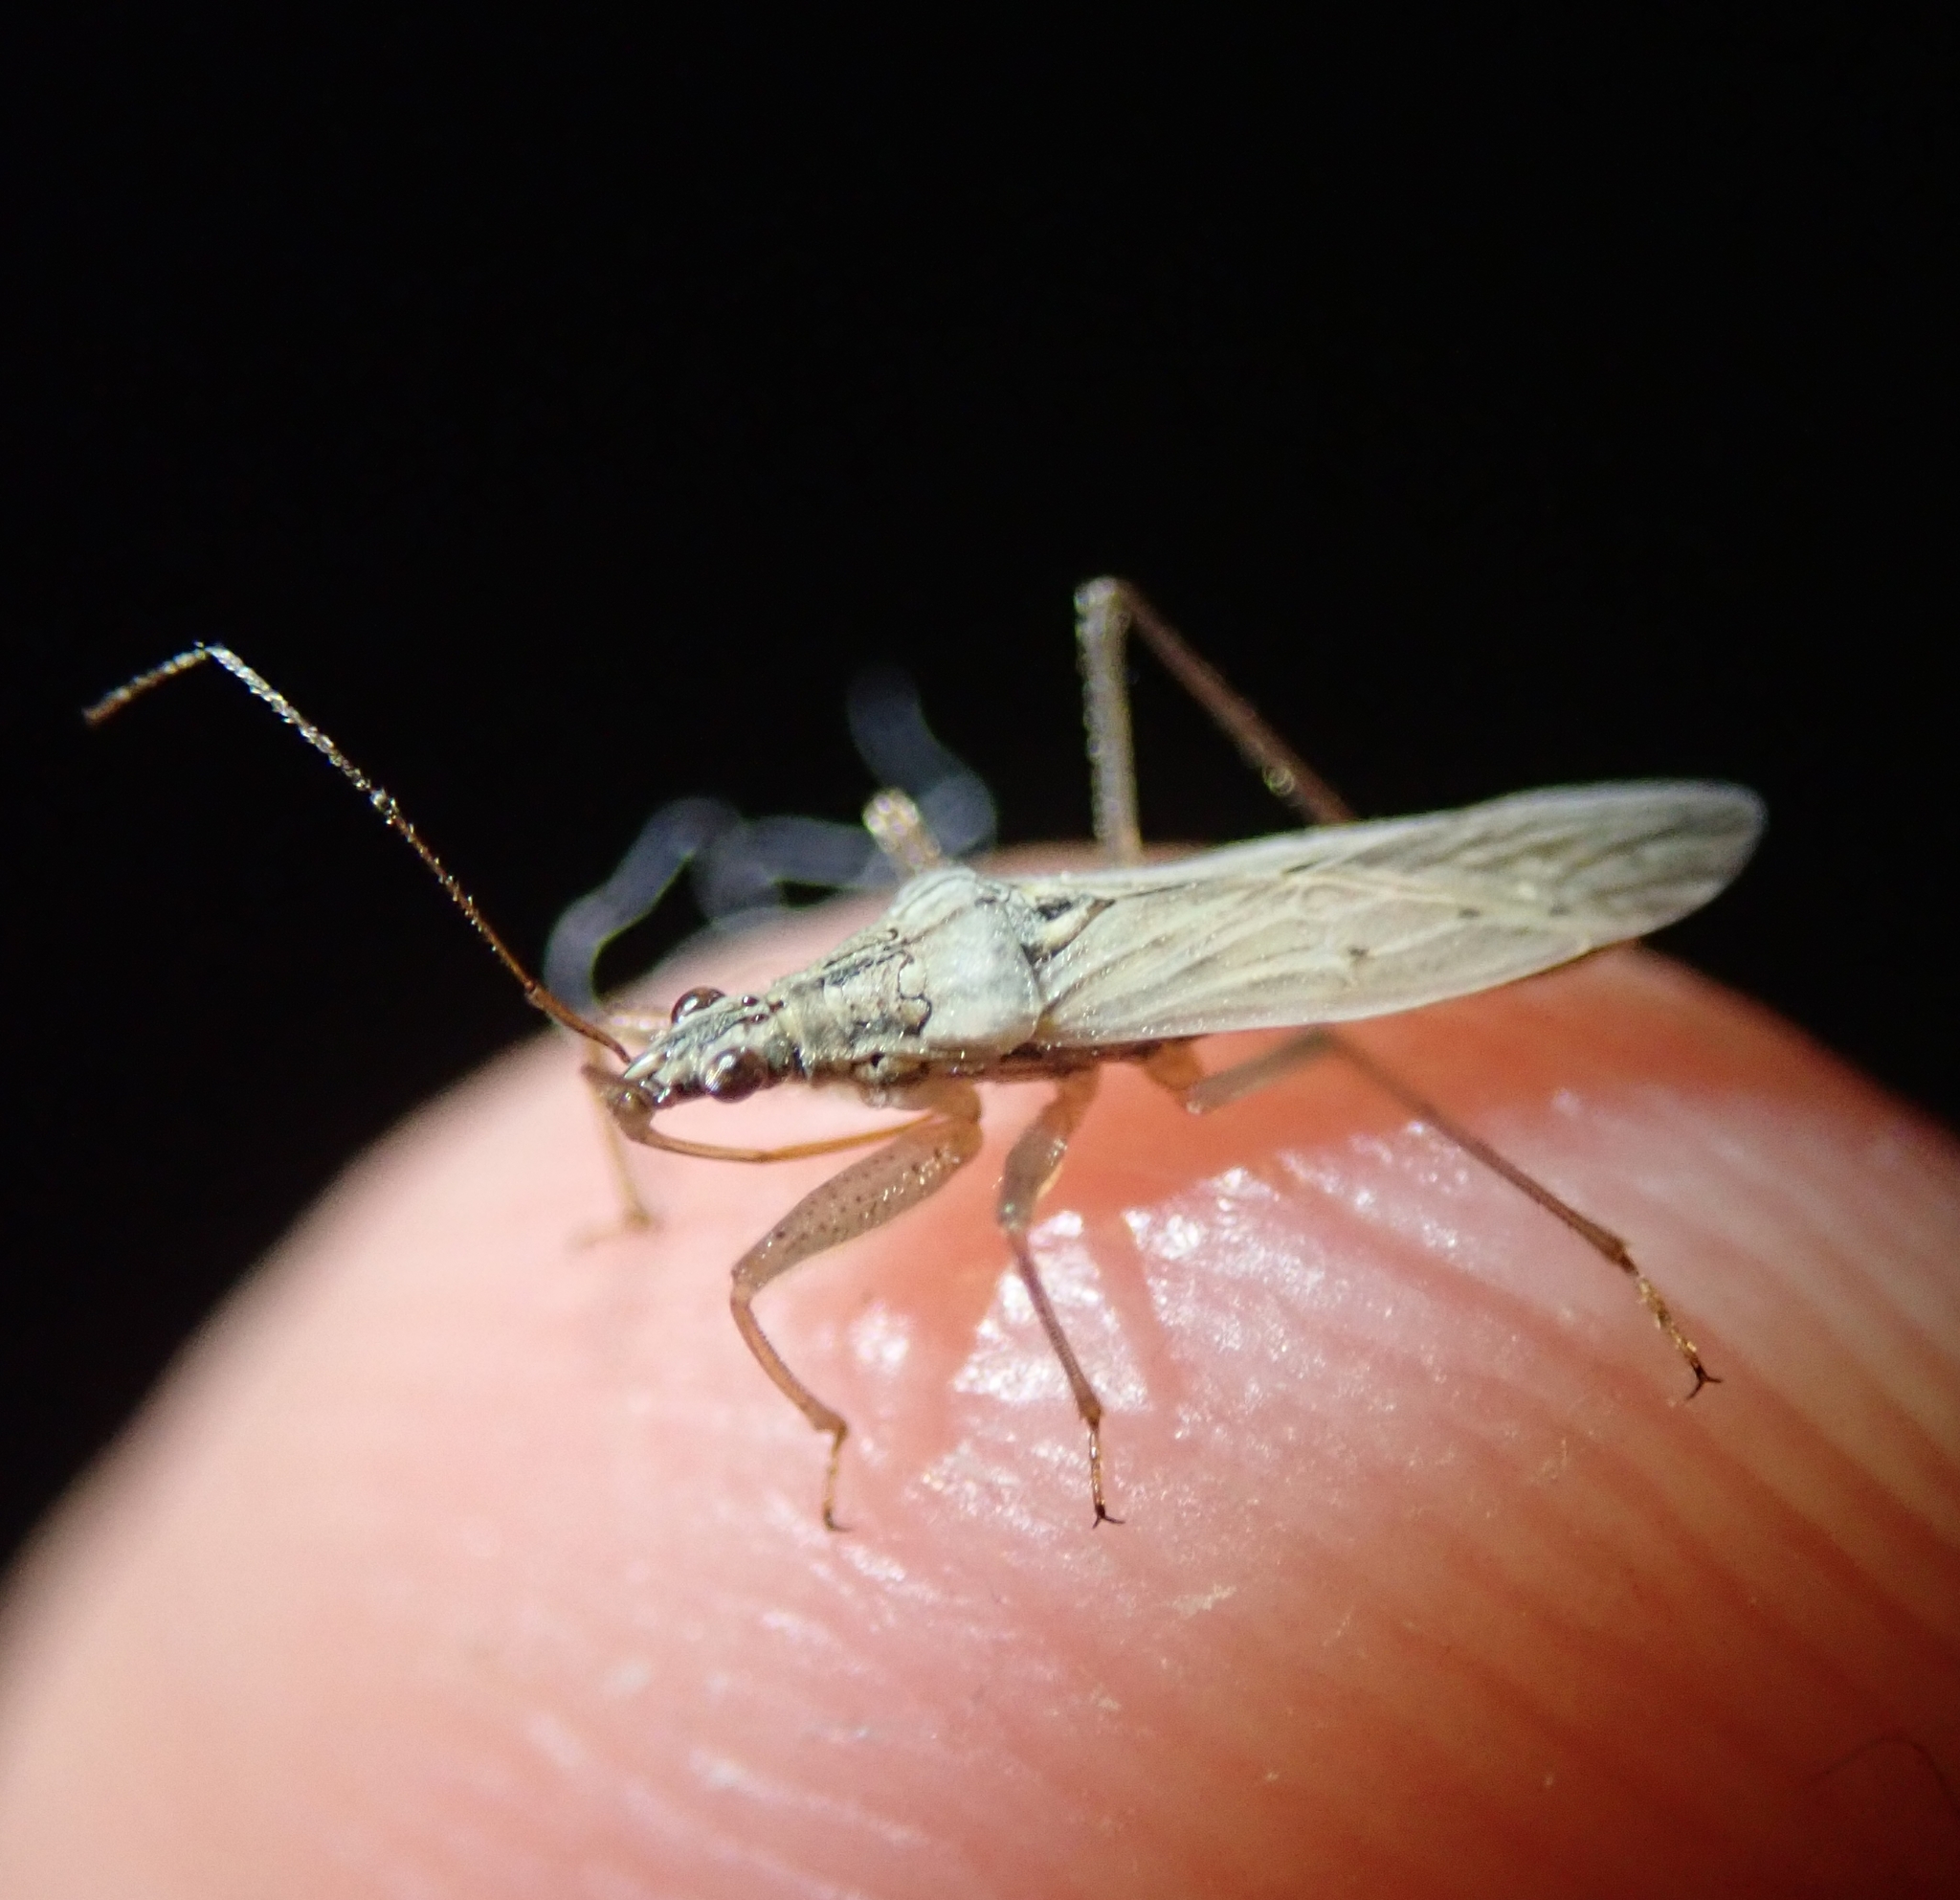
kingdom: Animalia
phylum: Arthropoda
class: Insecta
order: Hemiptera
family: Nabidae
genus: Nabis
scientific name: Nabis
